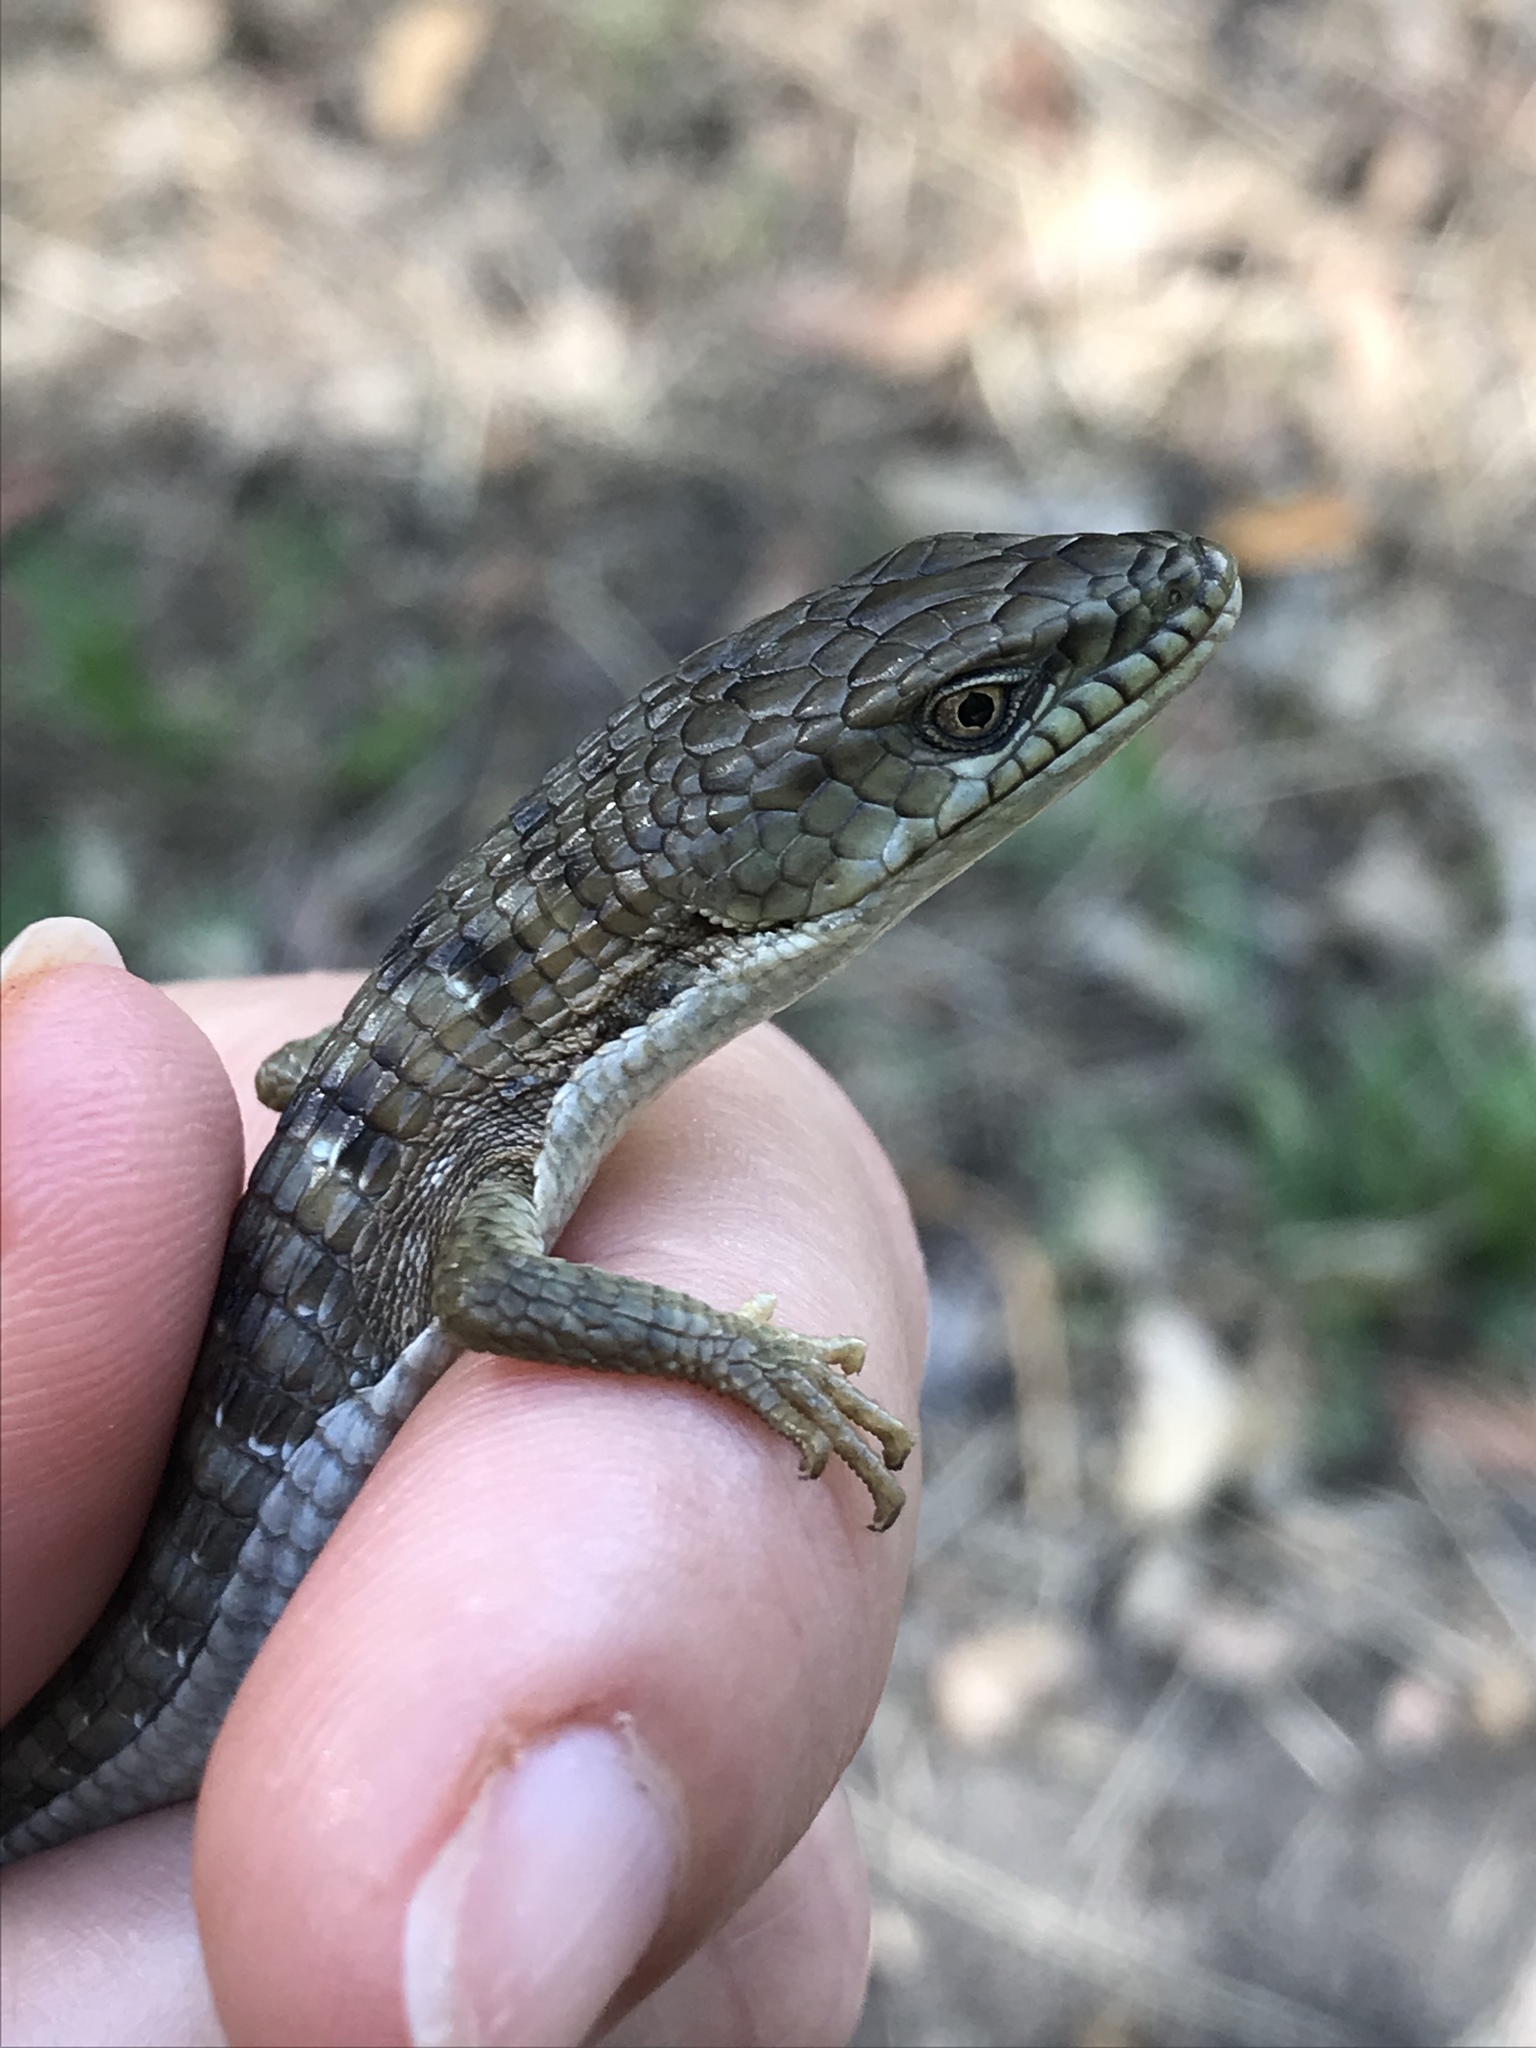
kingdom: Animalia
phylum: Chordata
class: Squamata
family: Anguidae
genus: Elgaria
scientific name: Elgaria multicarinata
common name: Southern alligator lizard
